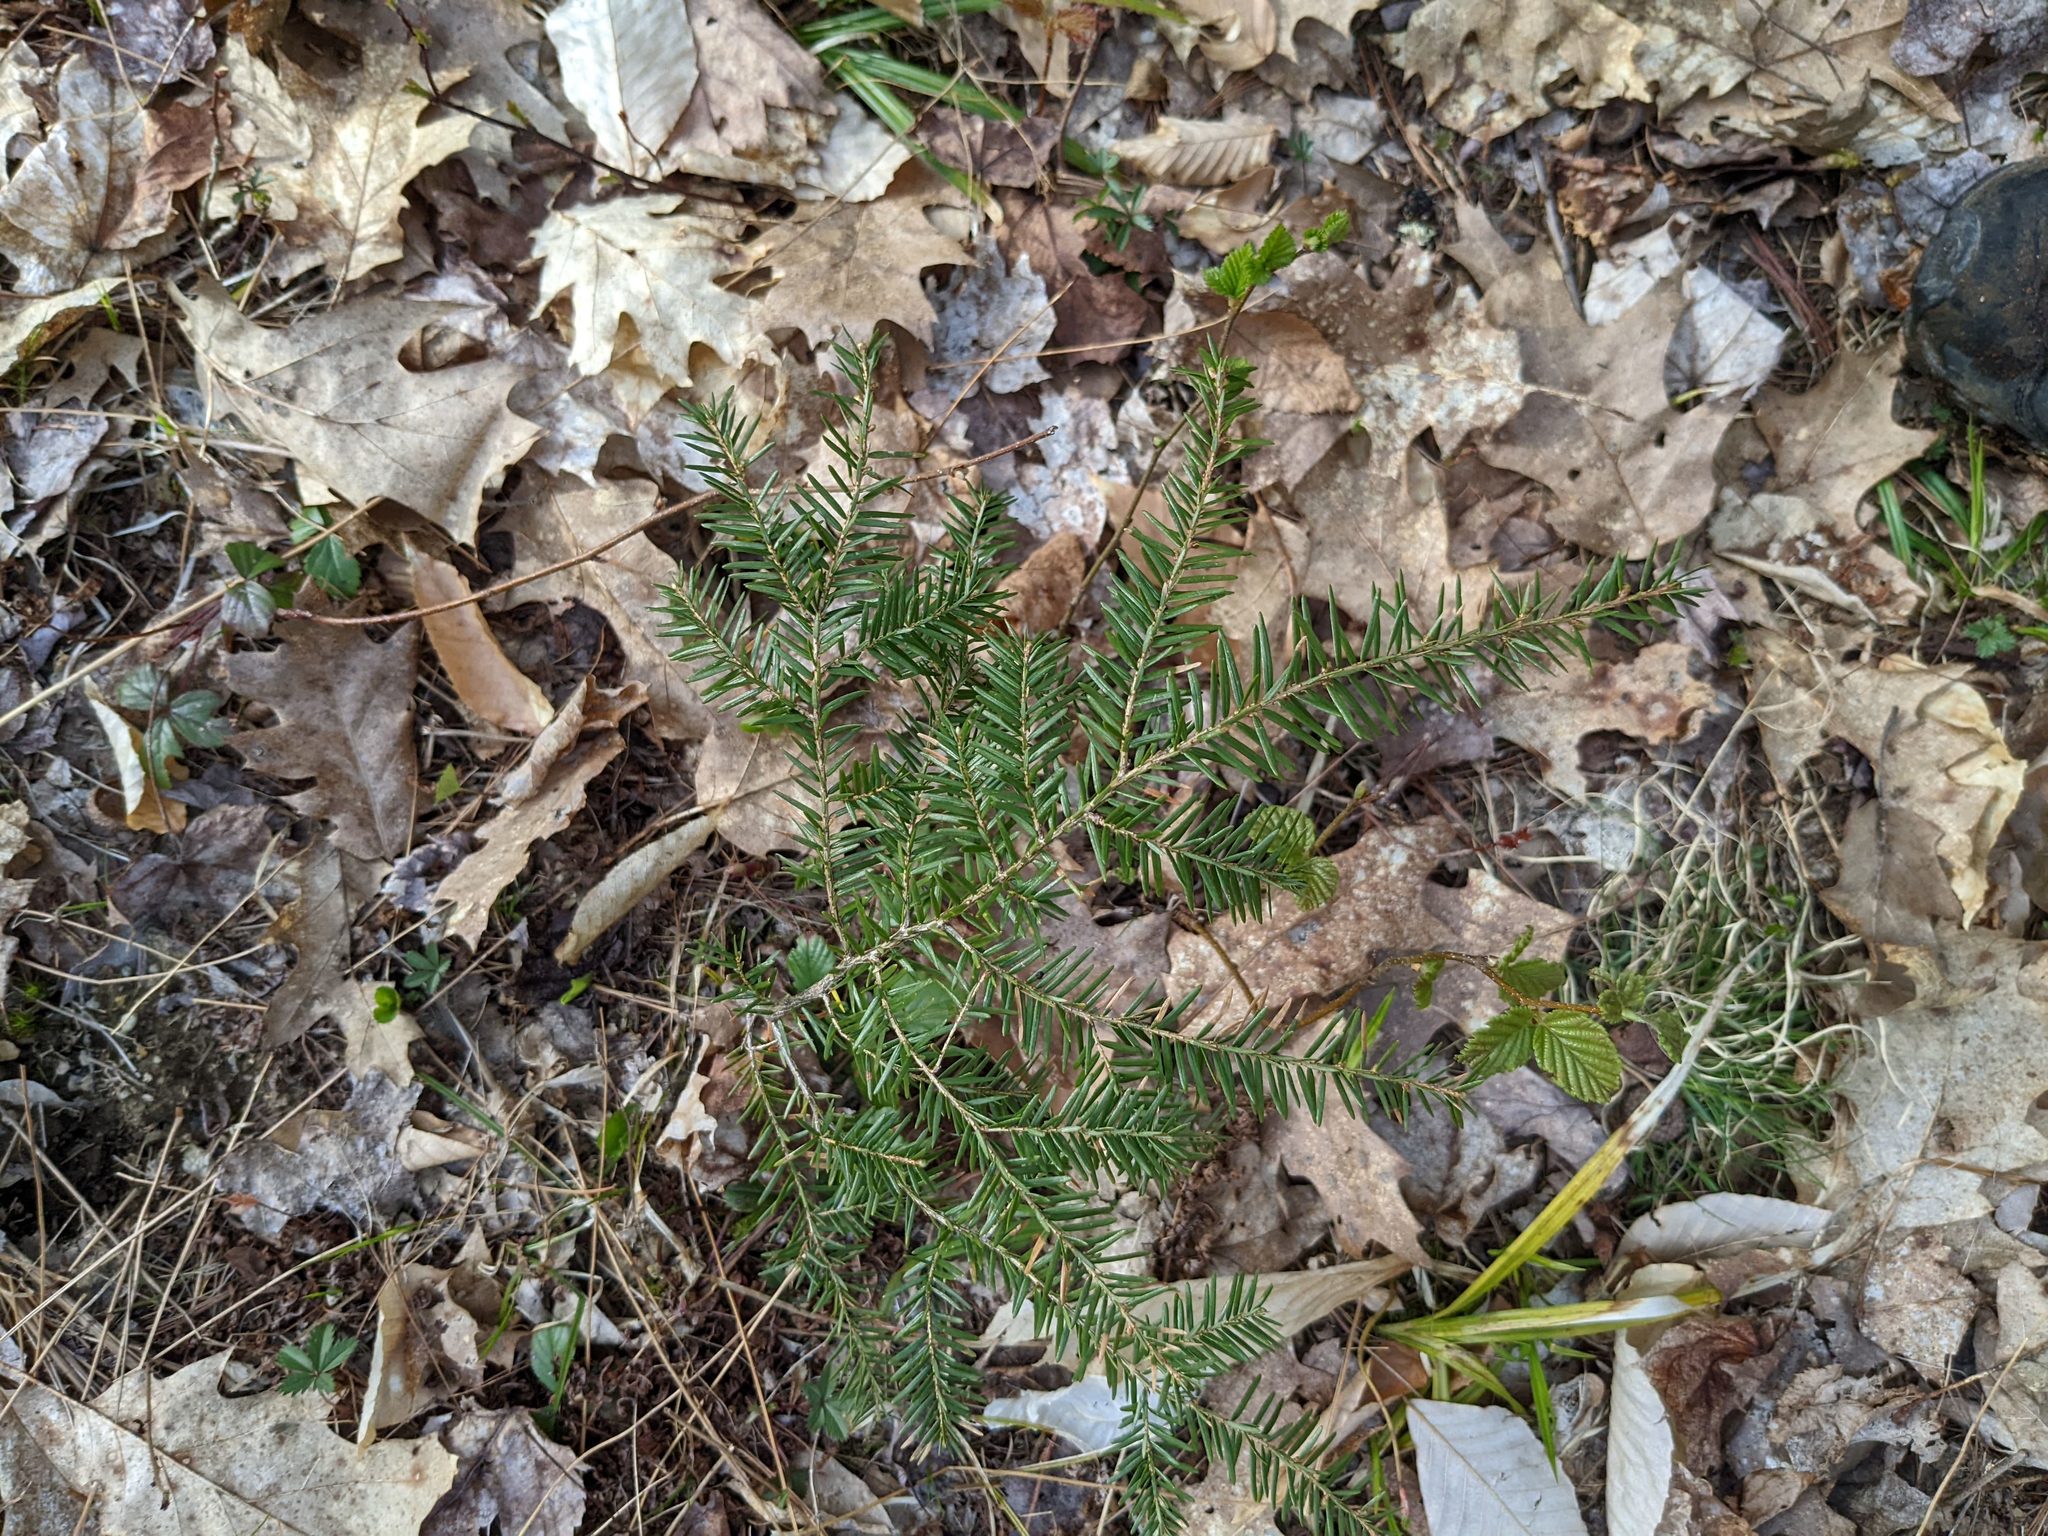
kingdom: Plantae
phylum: Tracheophyta
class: Pinopsida
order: Pinales
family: Pinaceae
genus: Tsuga
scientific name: Tsuga canadensis
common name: Eastern hemlock
